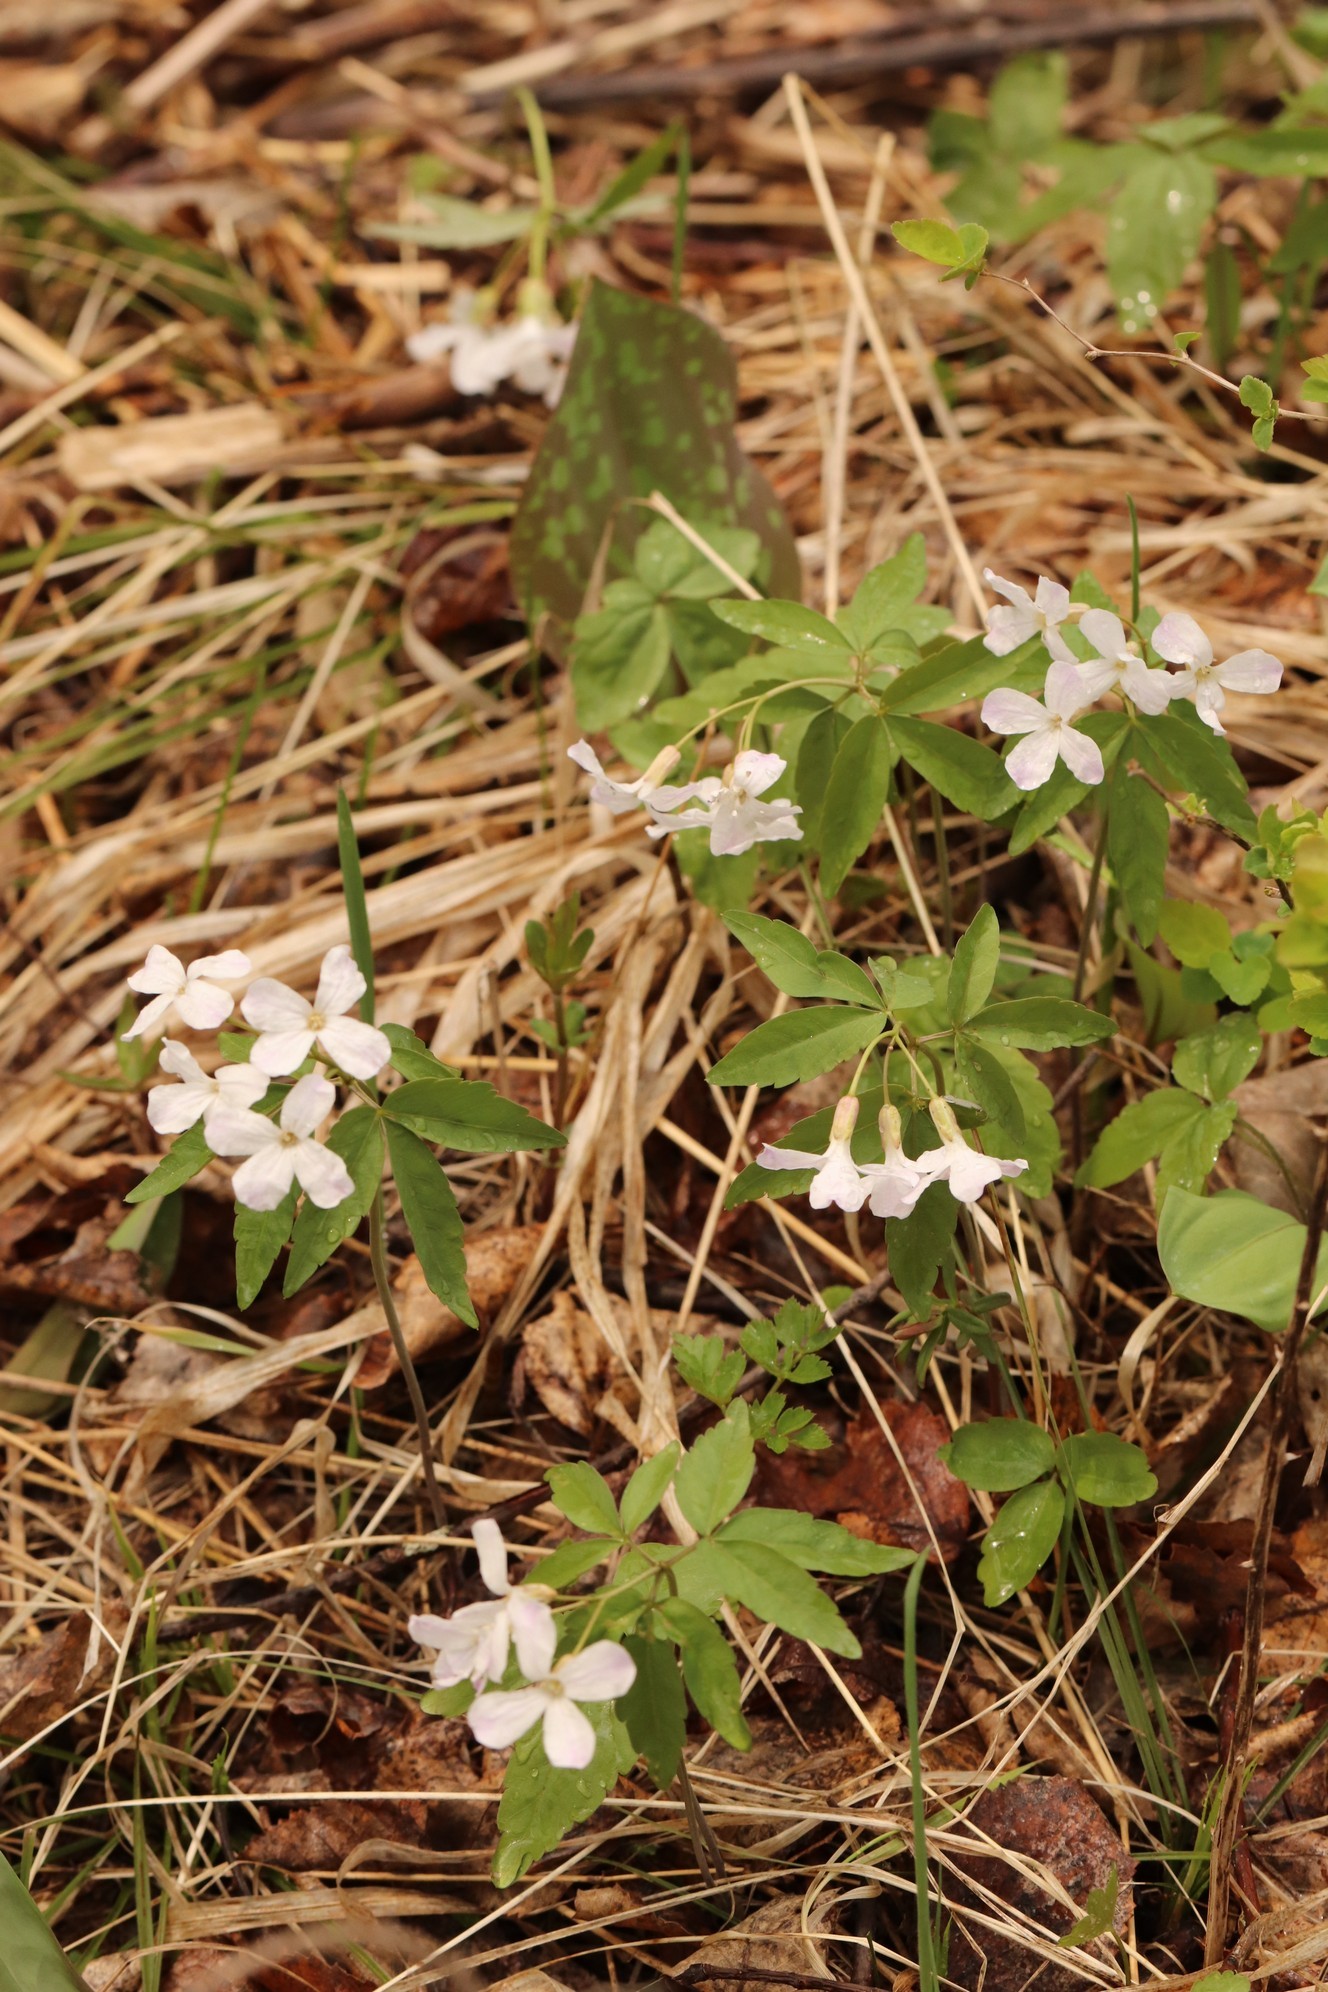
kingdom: Plantae
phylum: Tracheophyta
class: Magnoliopsida
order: Brassicales
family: Brassicaceae
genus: Cardamine
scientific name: Cardamine altaica
